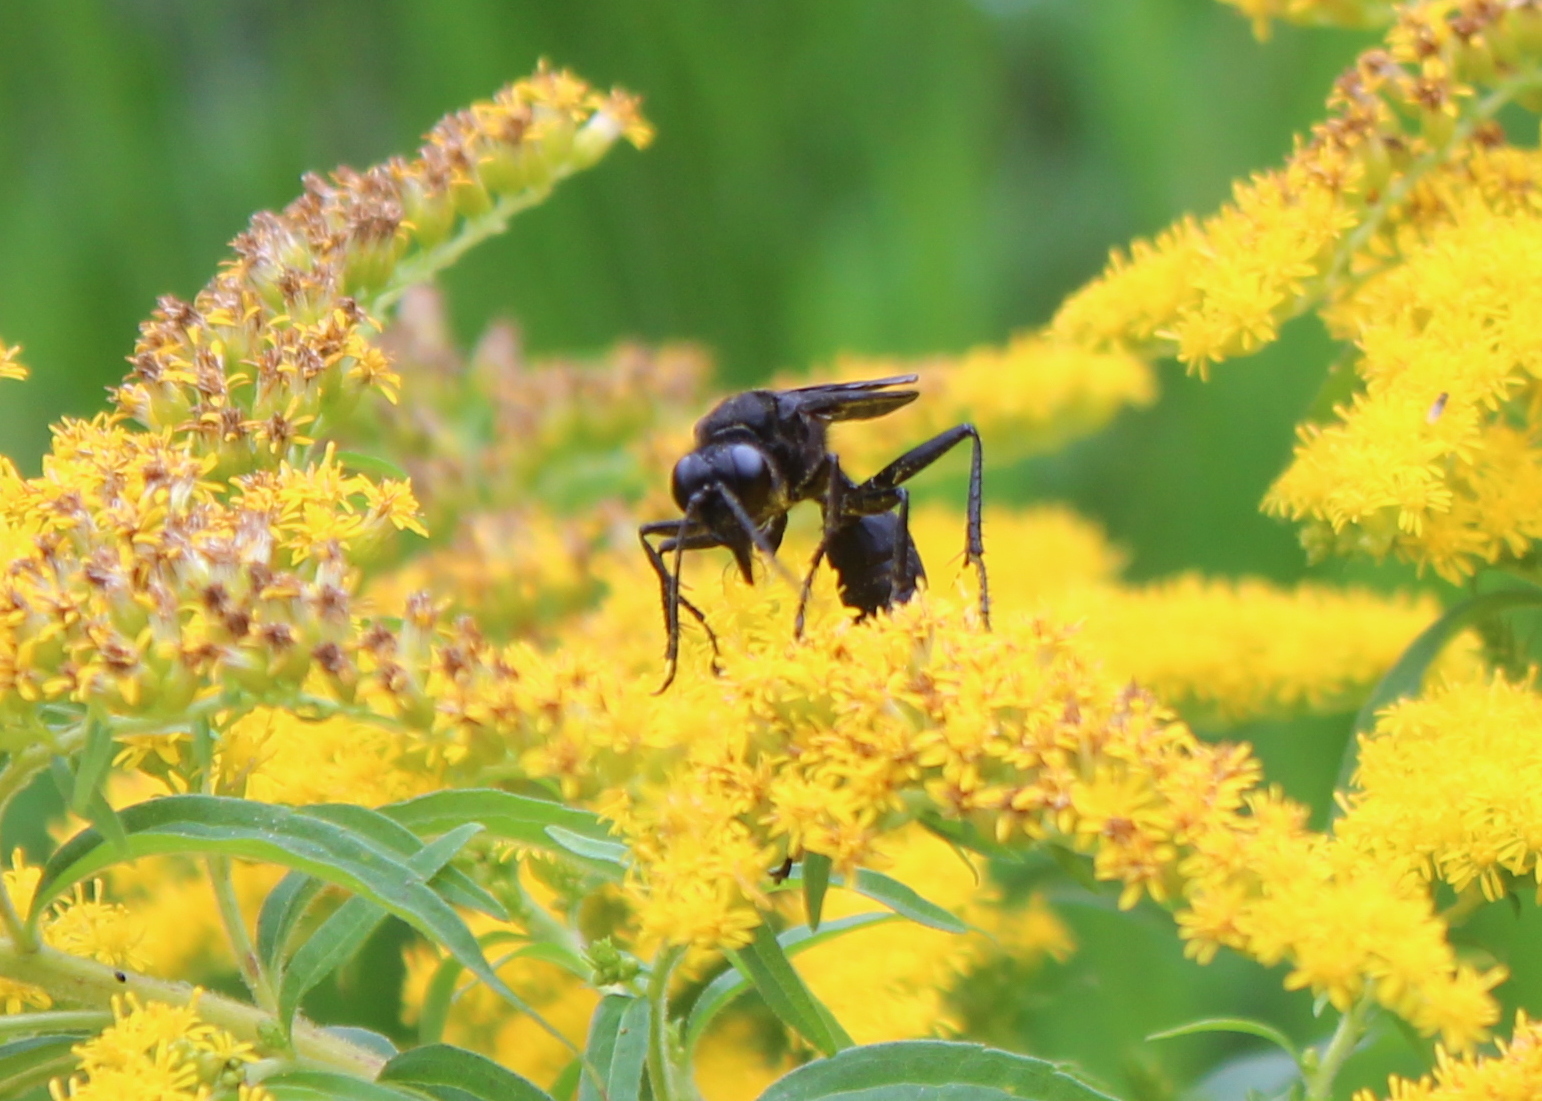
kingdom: Animalia
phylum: Arthropoda
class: Insecta
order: Hymenoptera
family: Sphecidae
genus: Sphex
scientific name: Sphex pensylvanicus
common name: Great black digger wasp
